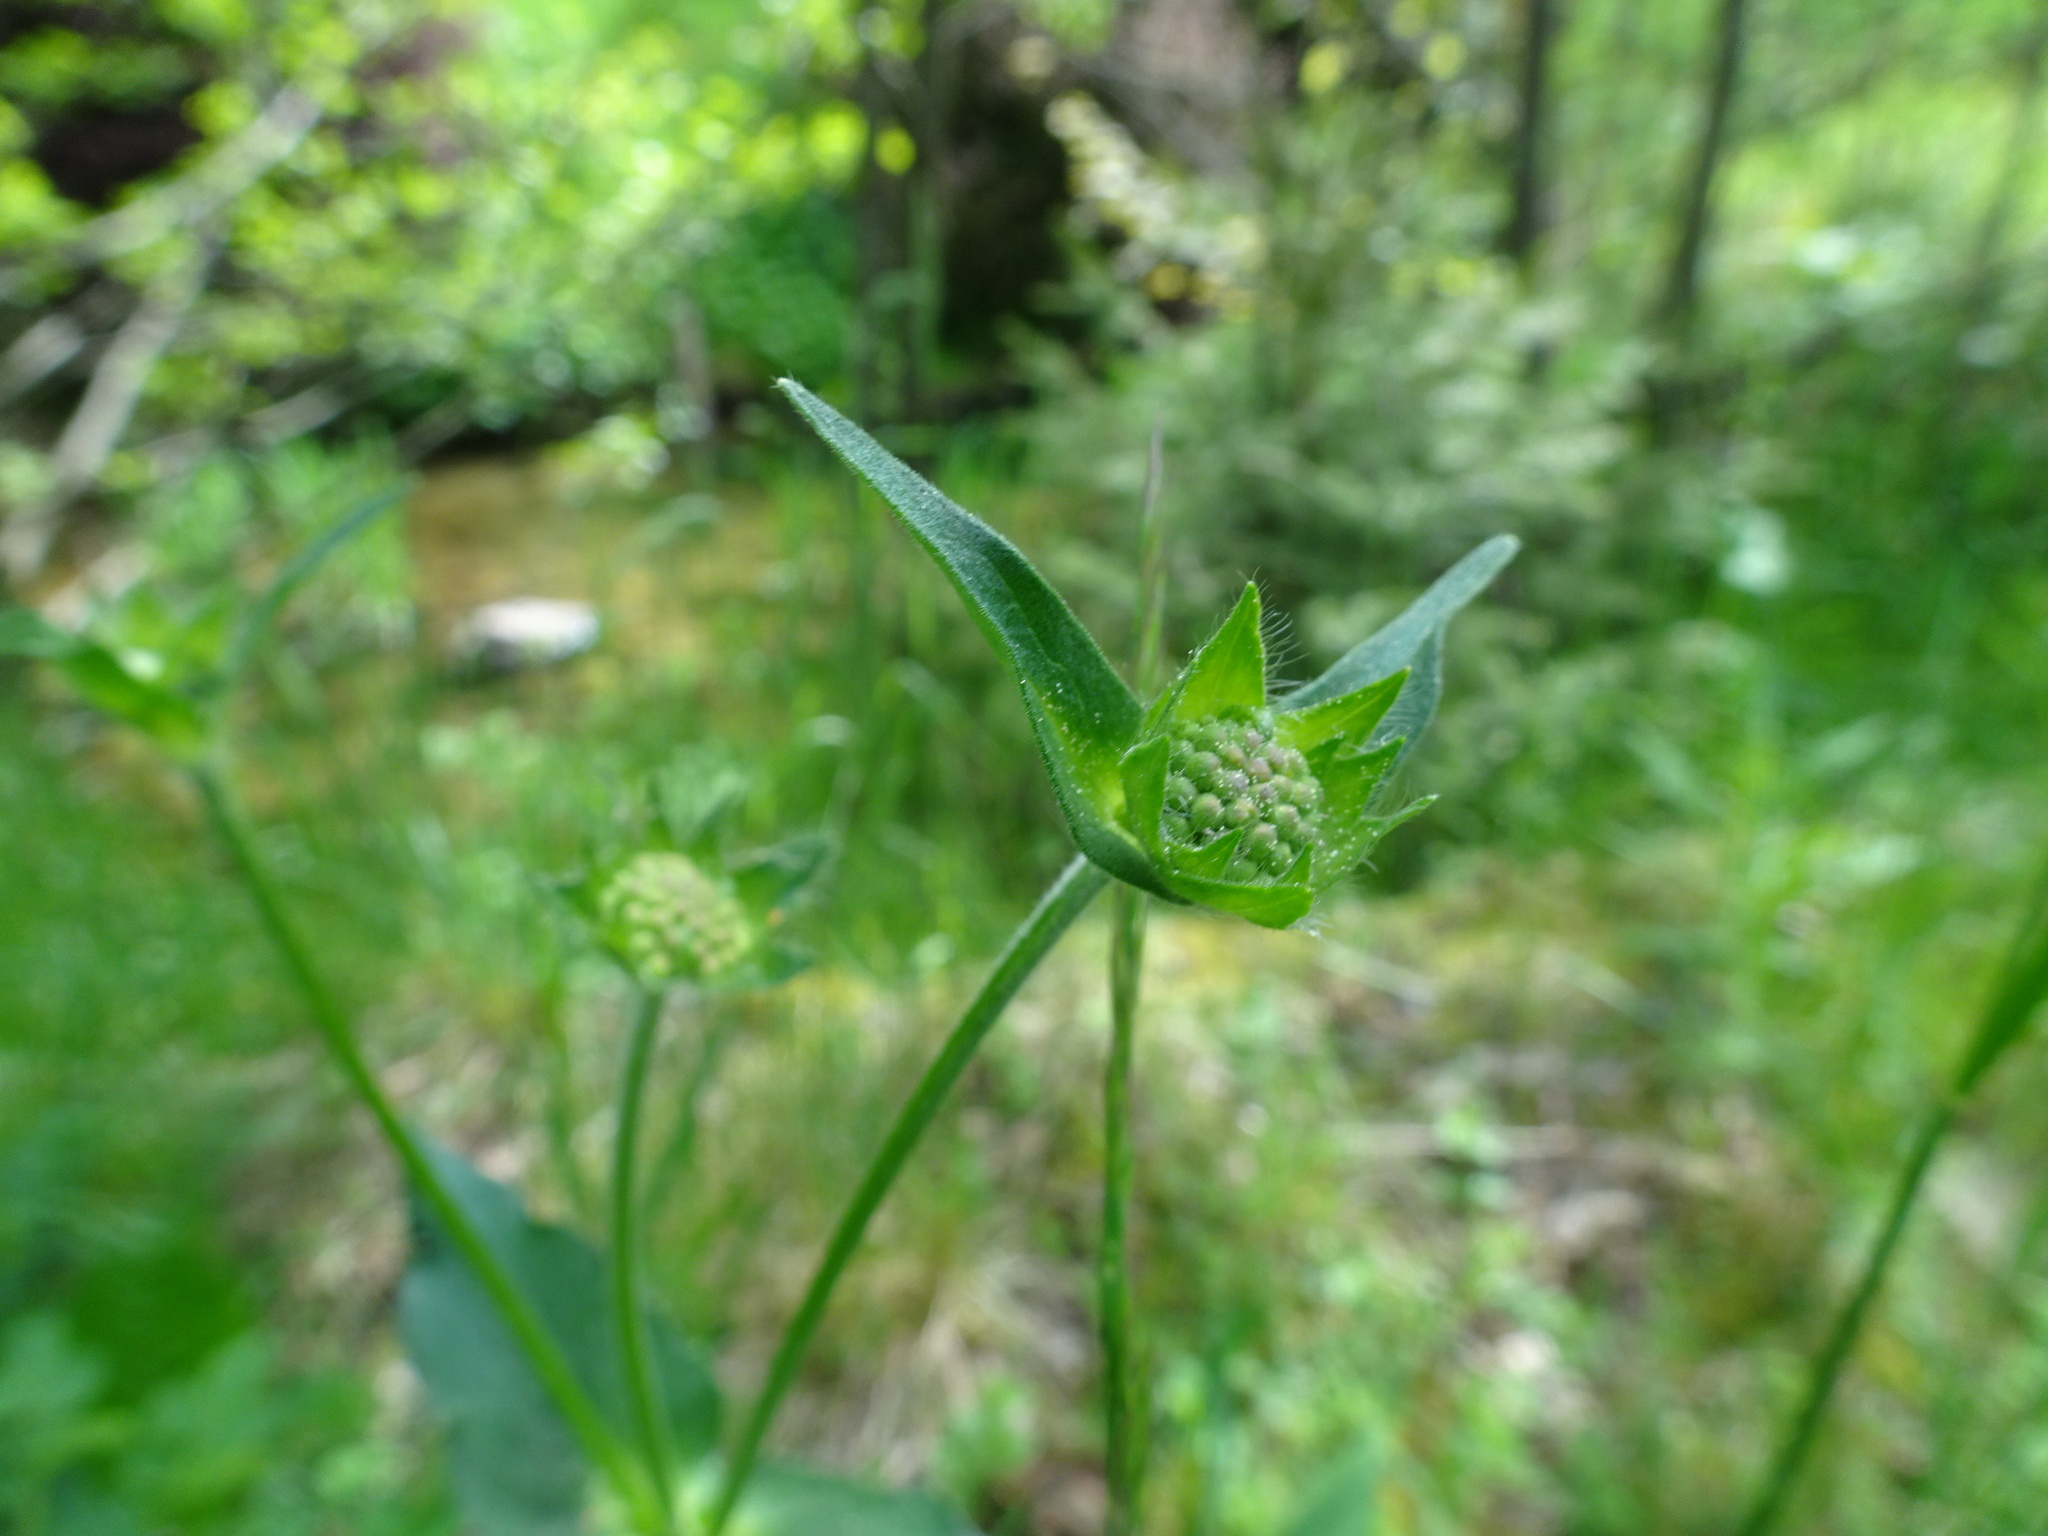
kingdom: Plantae
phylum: Tracheophyta
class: Magnoliopsida
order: Dipsacales
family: Caprifoliaceae
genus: Knautia
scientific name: Knautia dipsacifolia
